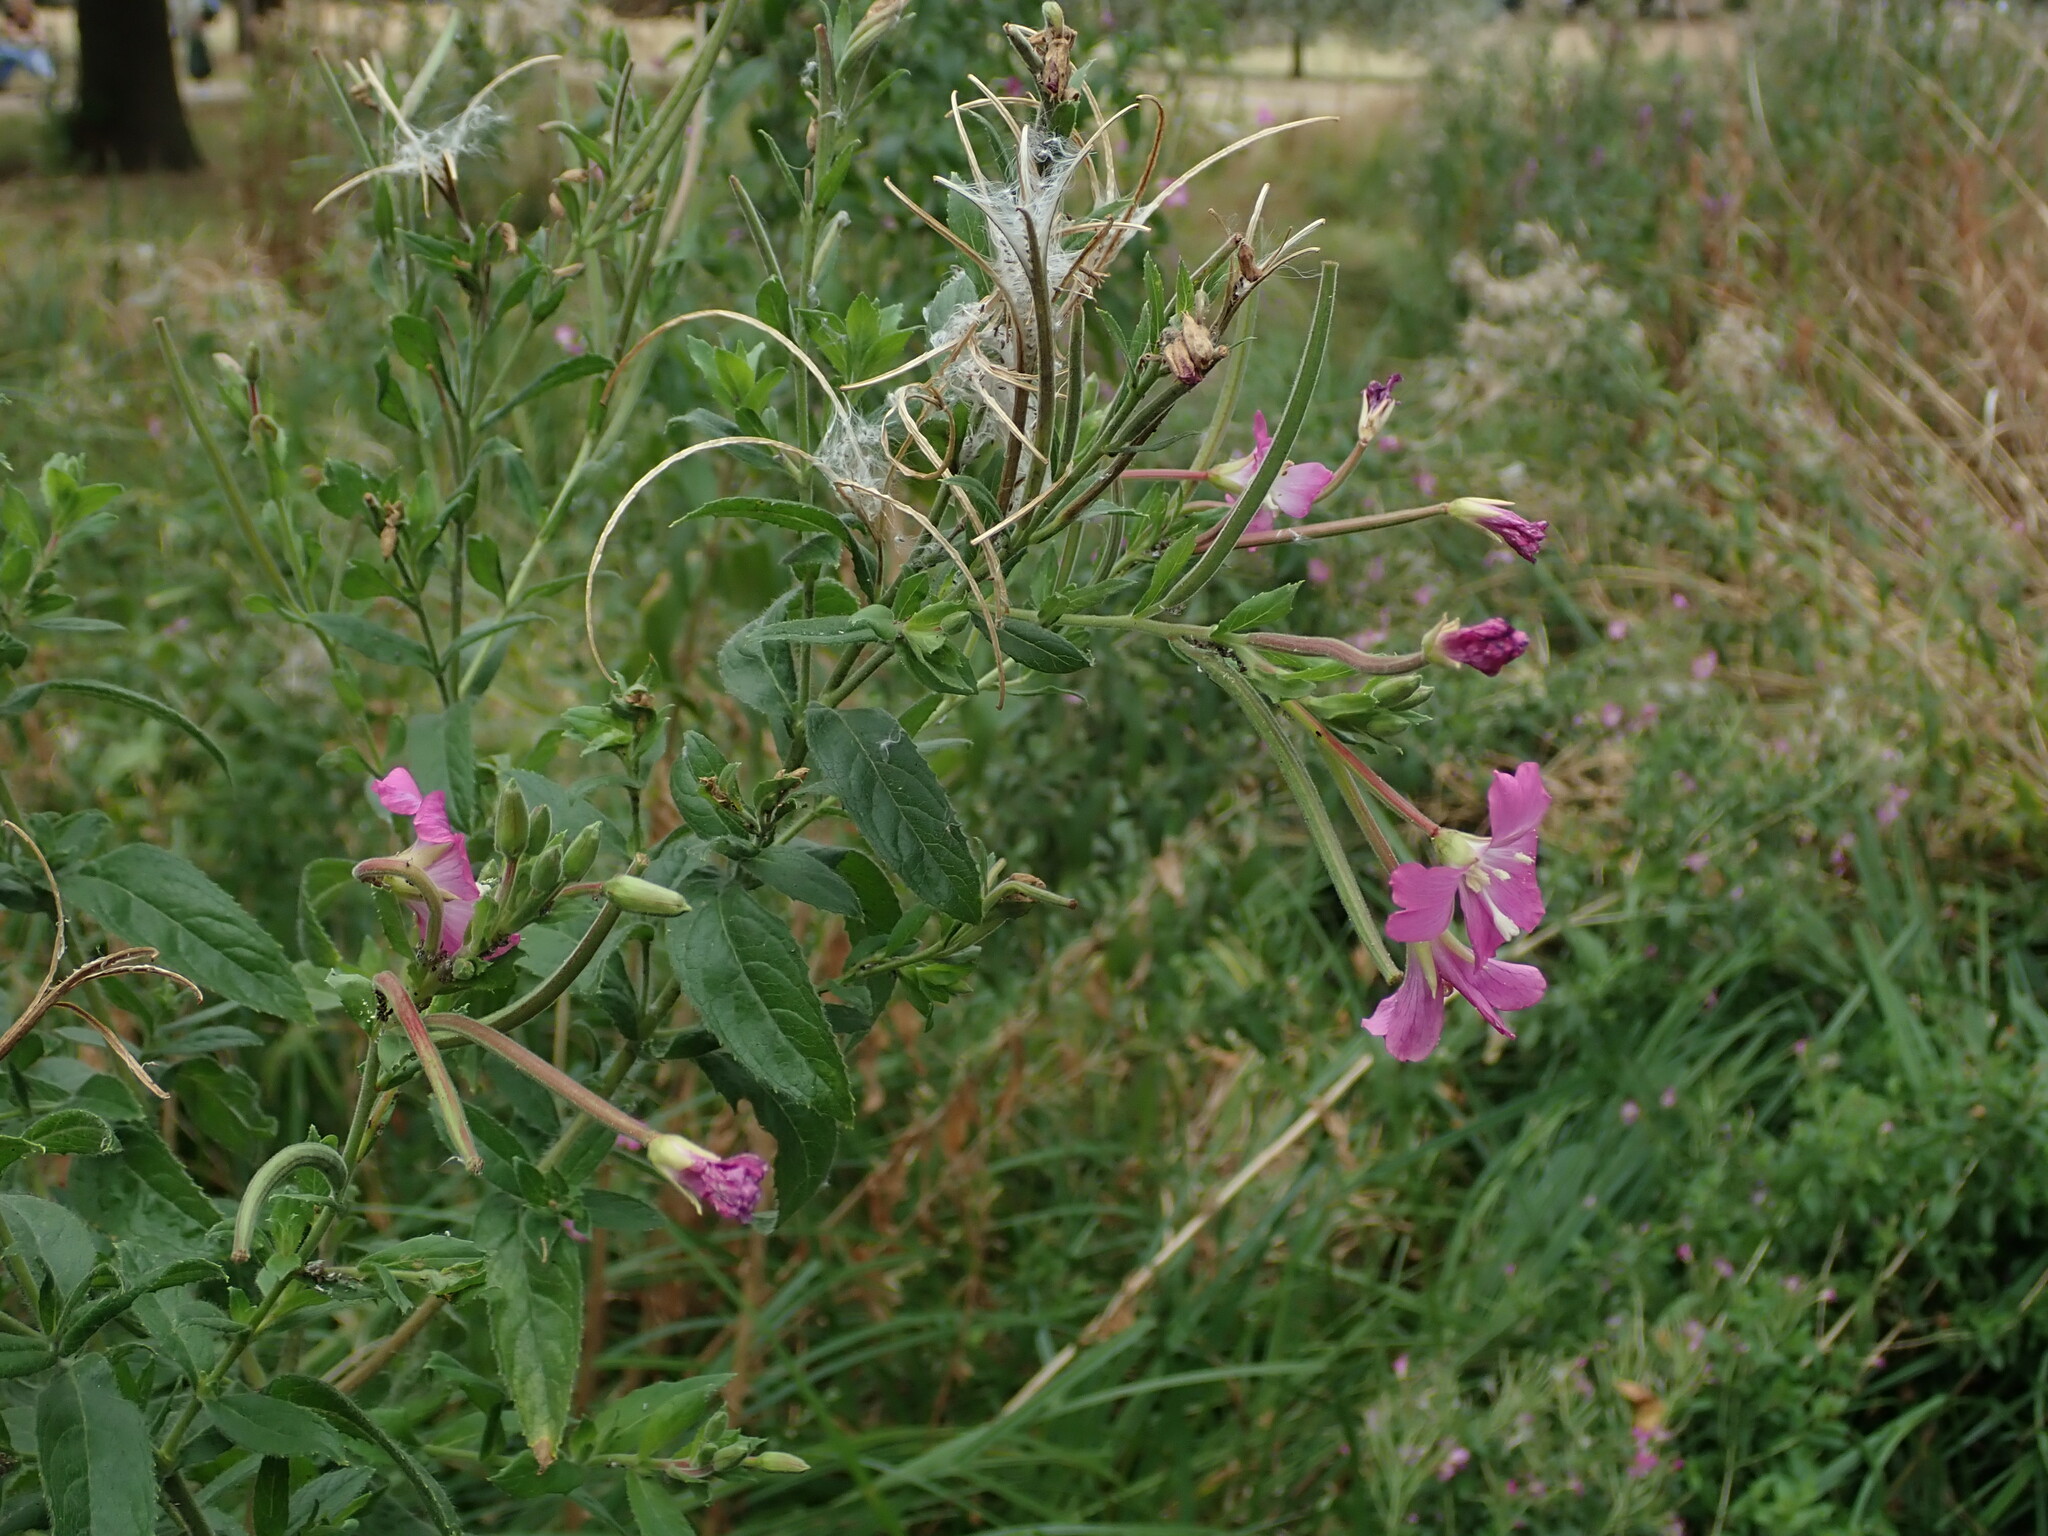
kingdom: Plantae
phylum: Tracheophyta
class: Magnoliopsida
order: Myrtales
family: Onagraceae
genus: Epilobium
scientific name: Epilobium hirsutum
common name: Great willowherb
